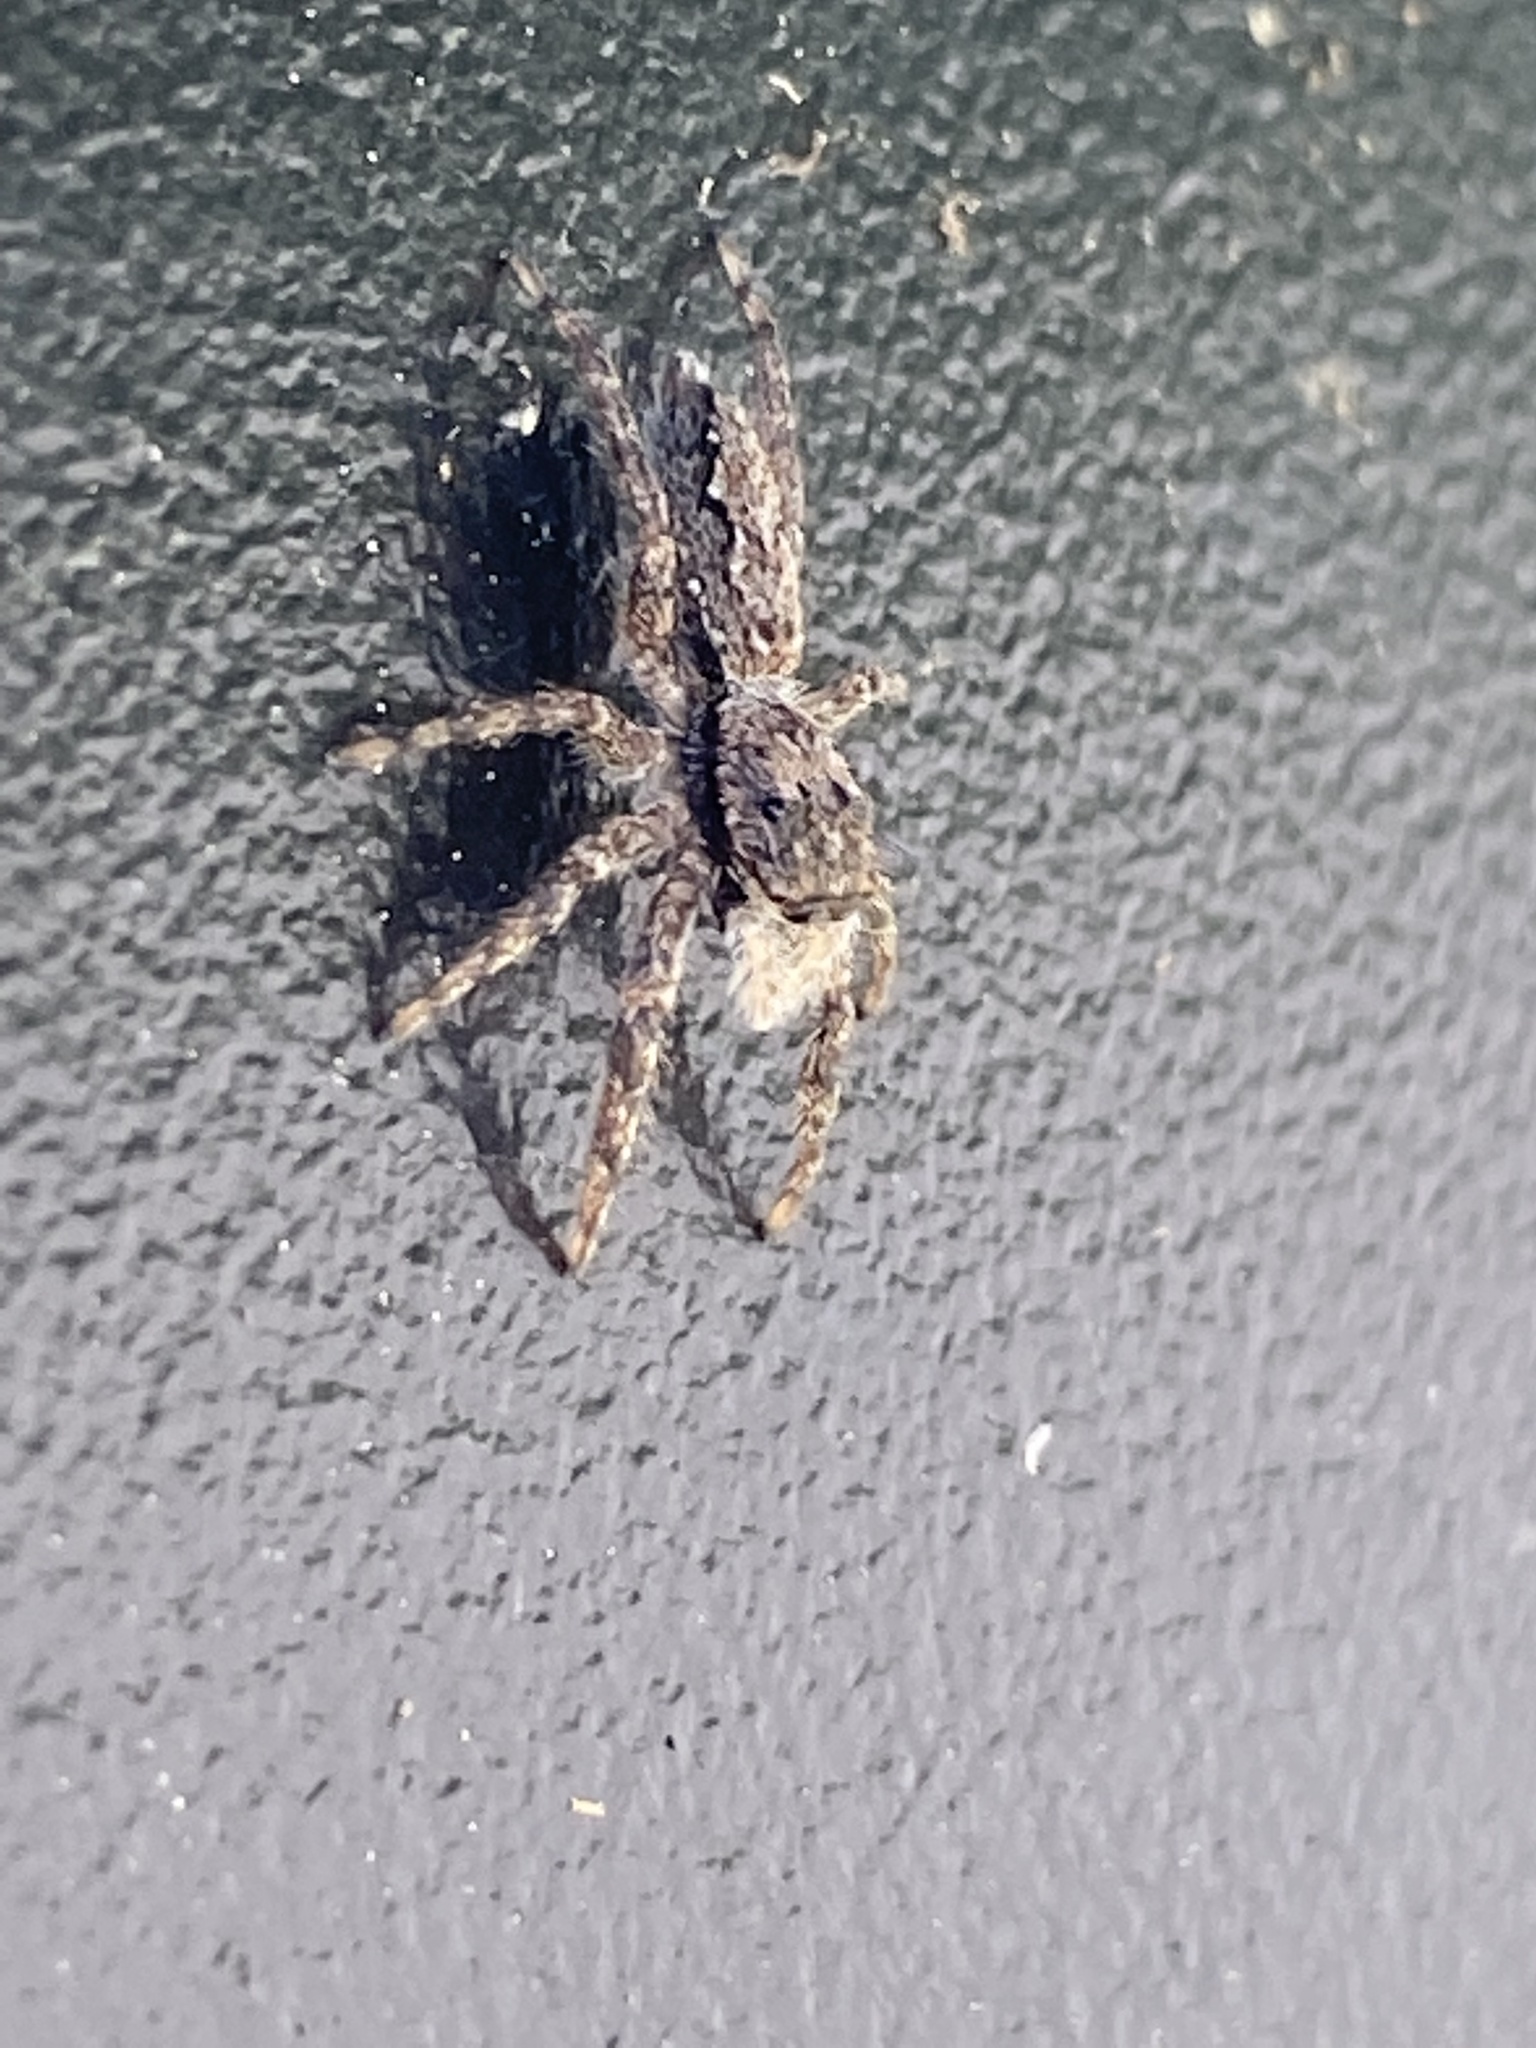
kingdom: Animalia
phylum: Arthropoda
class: Arachnida
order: Araneae
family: Salticidae
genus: Platycryptus
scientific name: Platycryptus undatus
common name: Tan jumping spider
